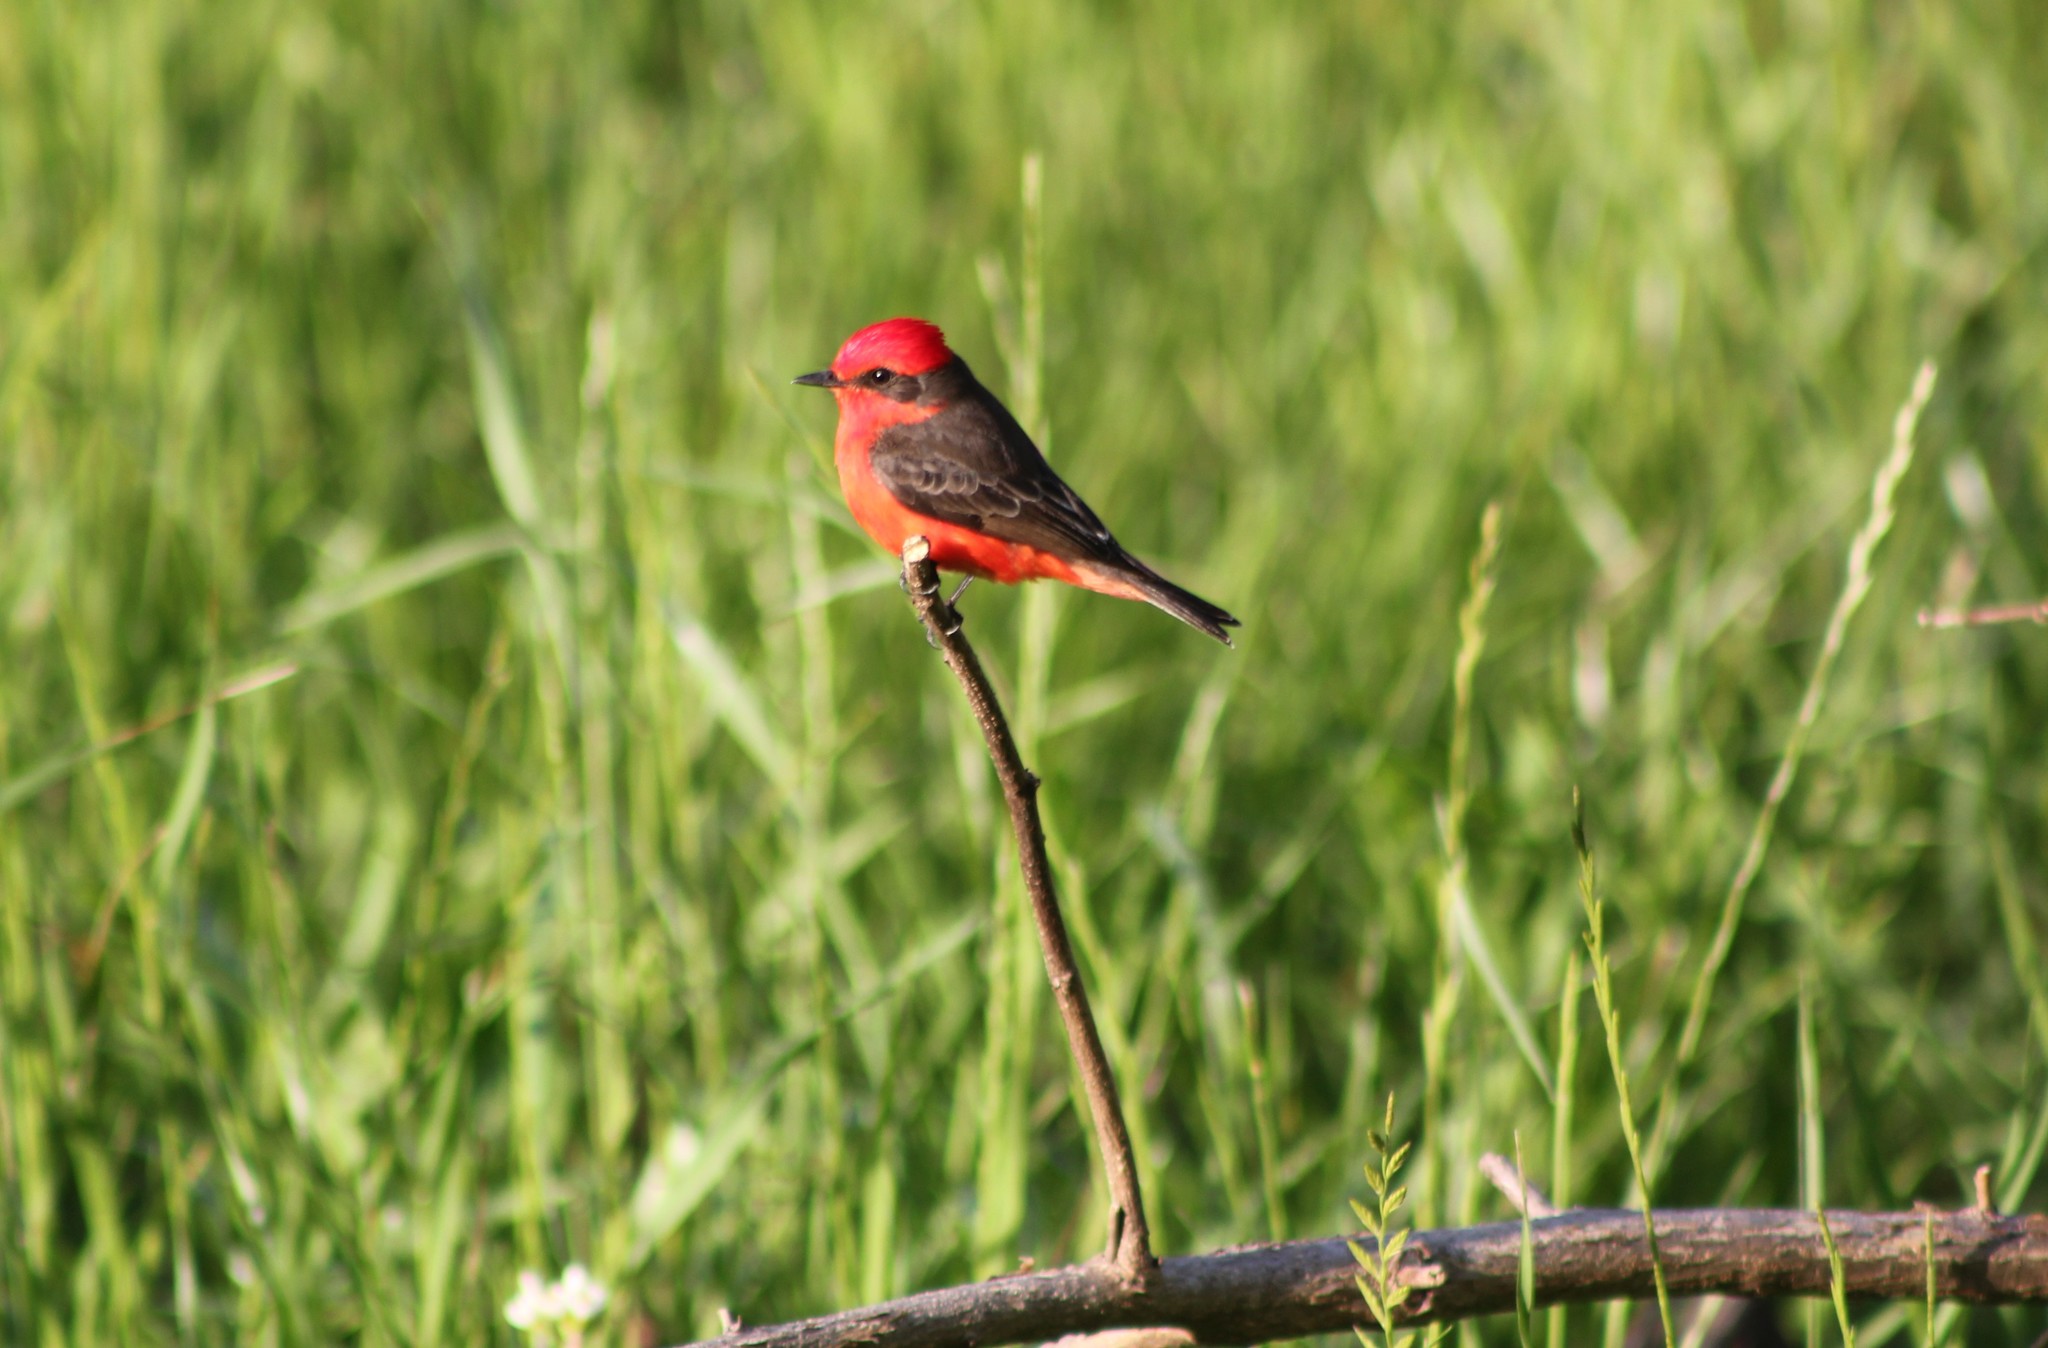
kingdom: Animalia
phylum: Chordata
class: Aves
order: Passeriformes
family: Tyrannidae
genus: Pyrocephalus
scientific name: Pyrocephalus rubinus
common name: Vermilion flycatcher
